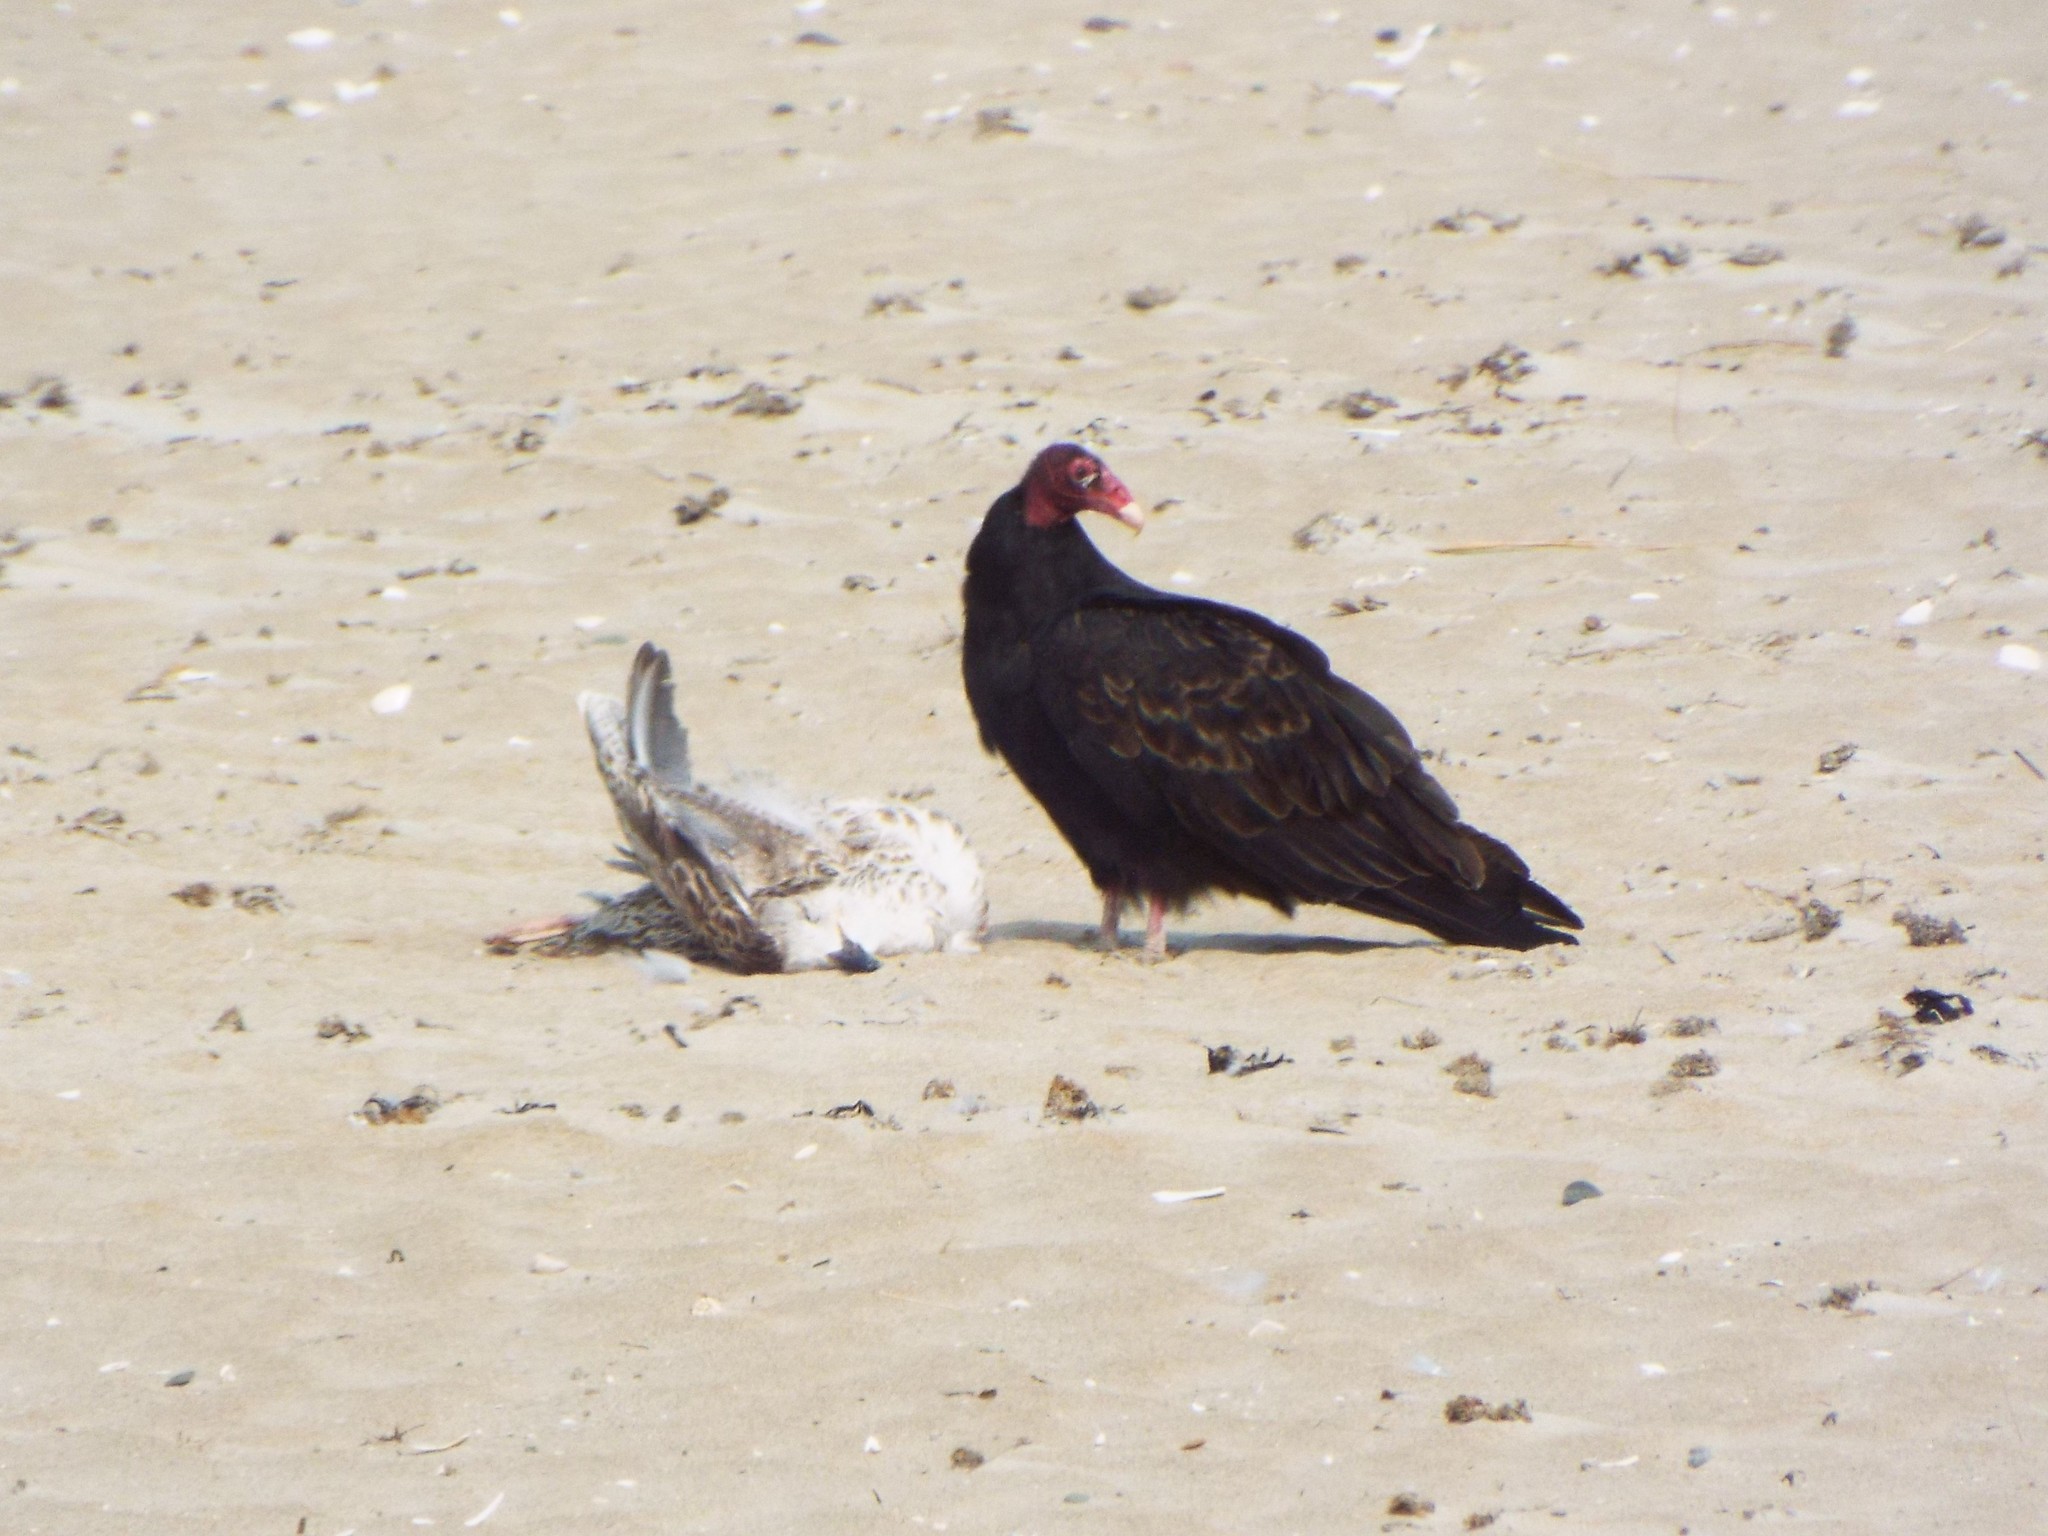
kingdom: Animalia
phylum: Chordata
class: Aves
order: Accipitriformes
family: Cathartidae
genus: Cathartes
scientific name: Cathartes aura
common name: Turkey vulture
